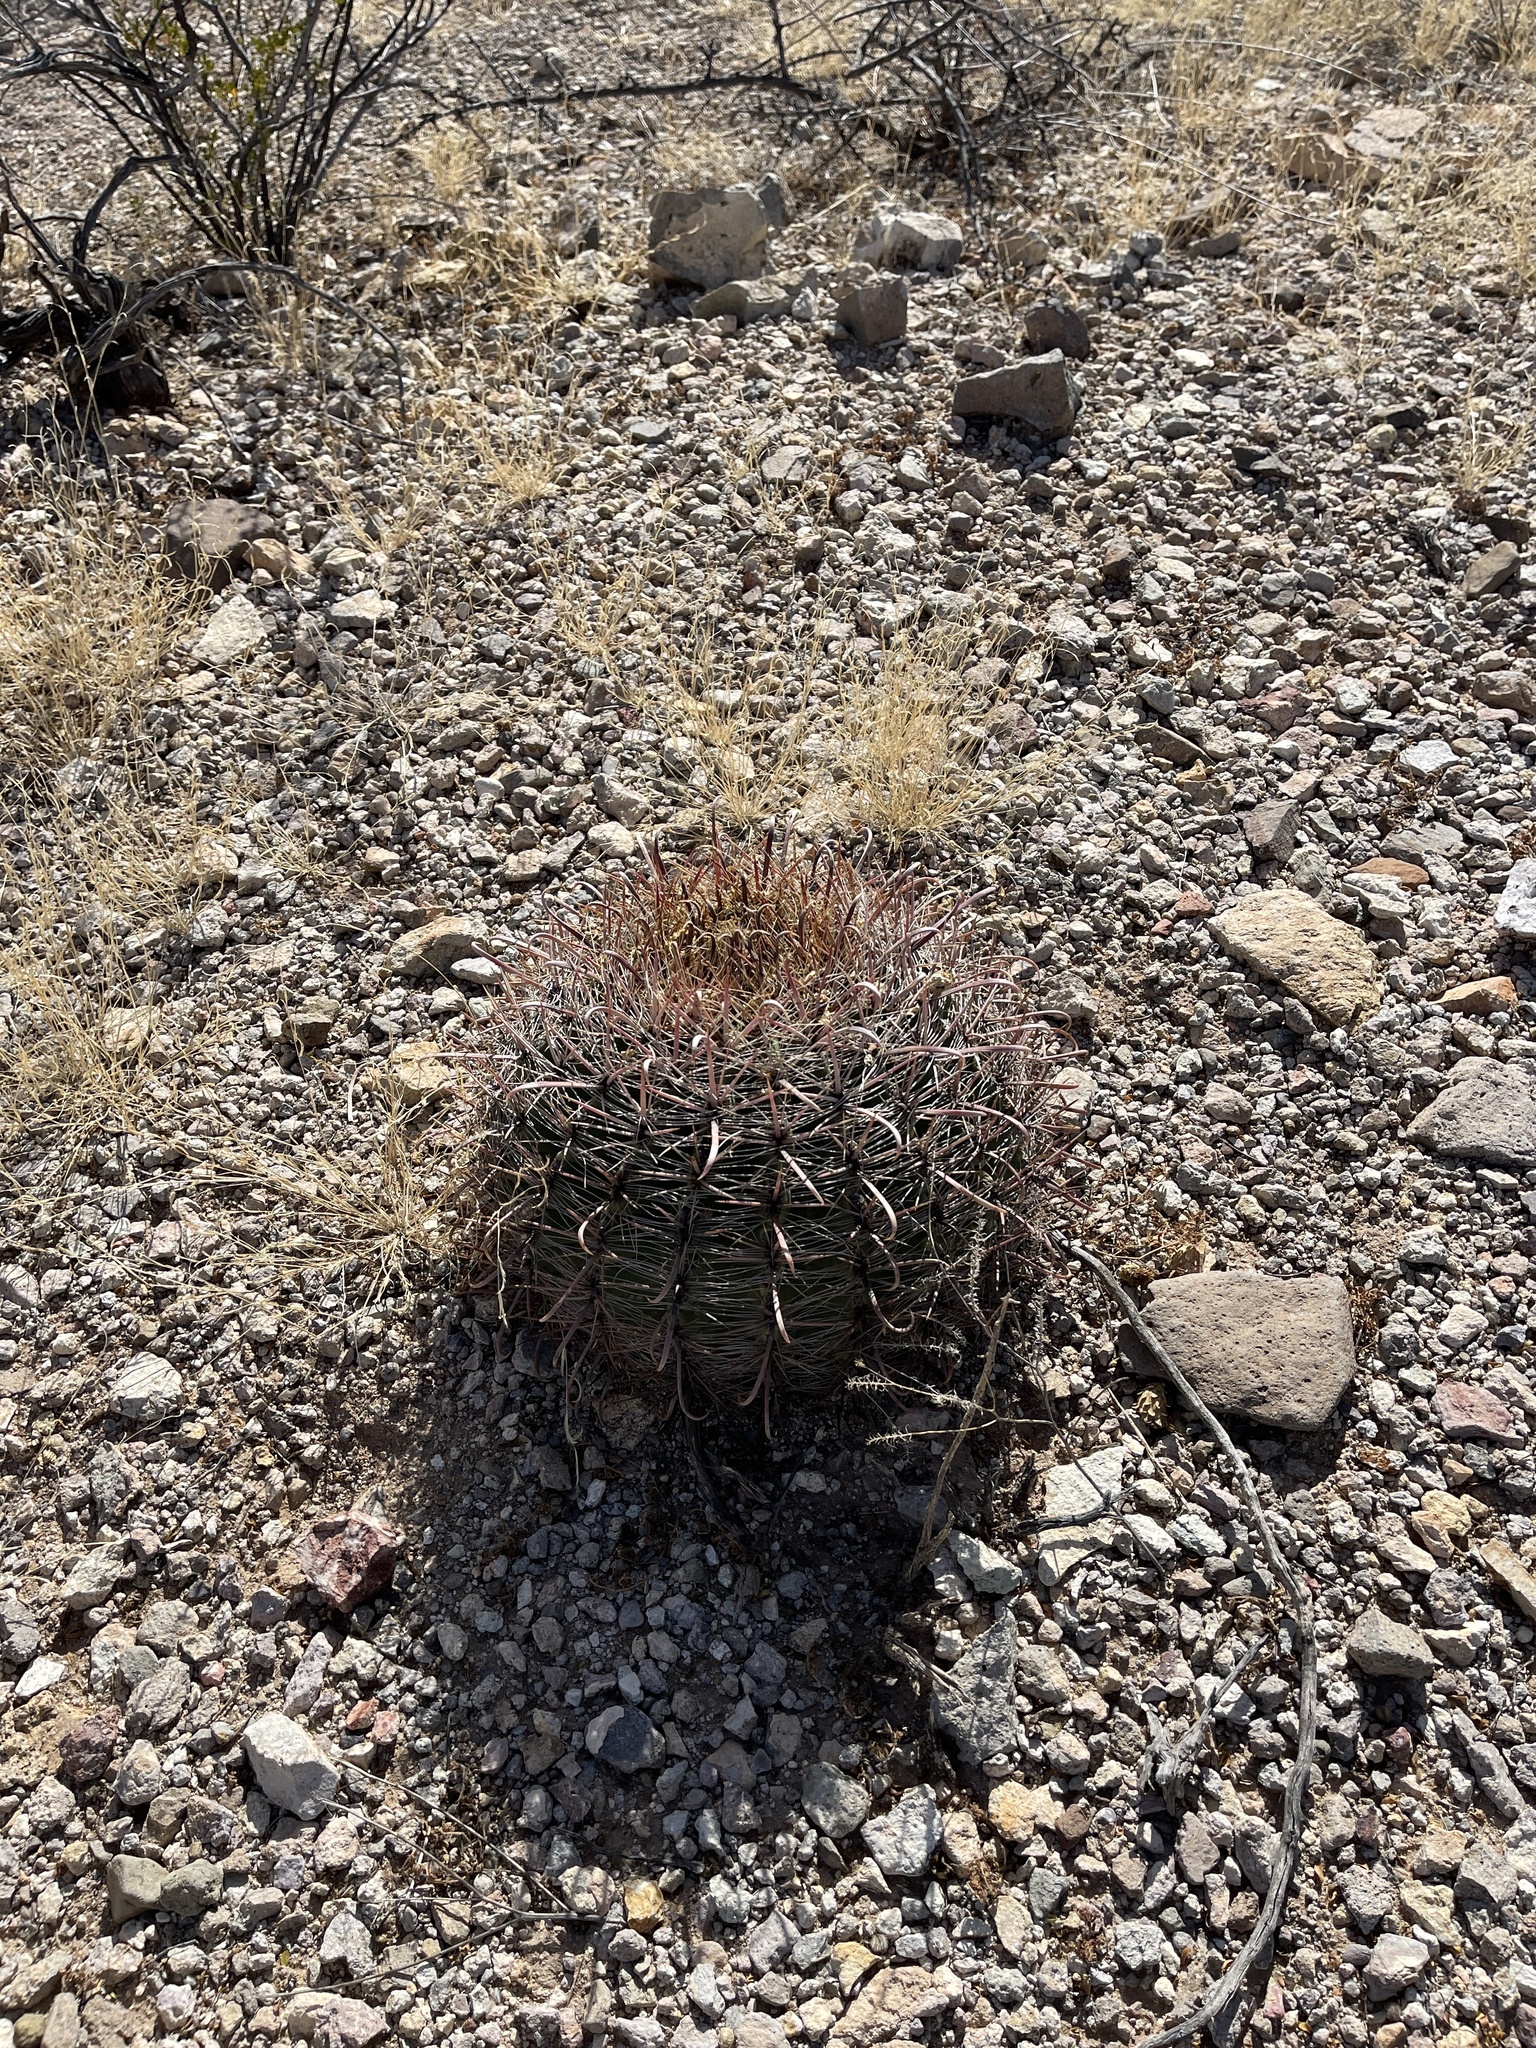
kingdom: Plantae
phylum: Tracheophyta
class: Magnoliopsida
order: Caryophyllales
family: Cactaceae
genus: Ferocactus
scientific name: Ferocactus wislizeni
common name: Candy barrel cactus
